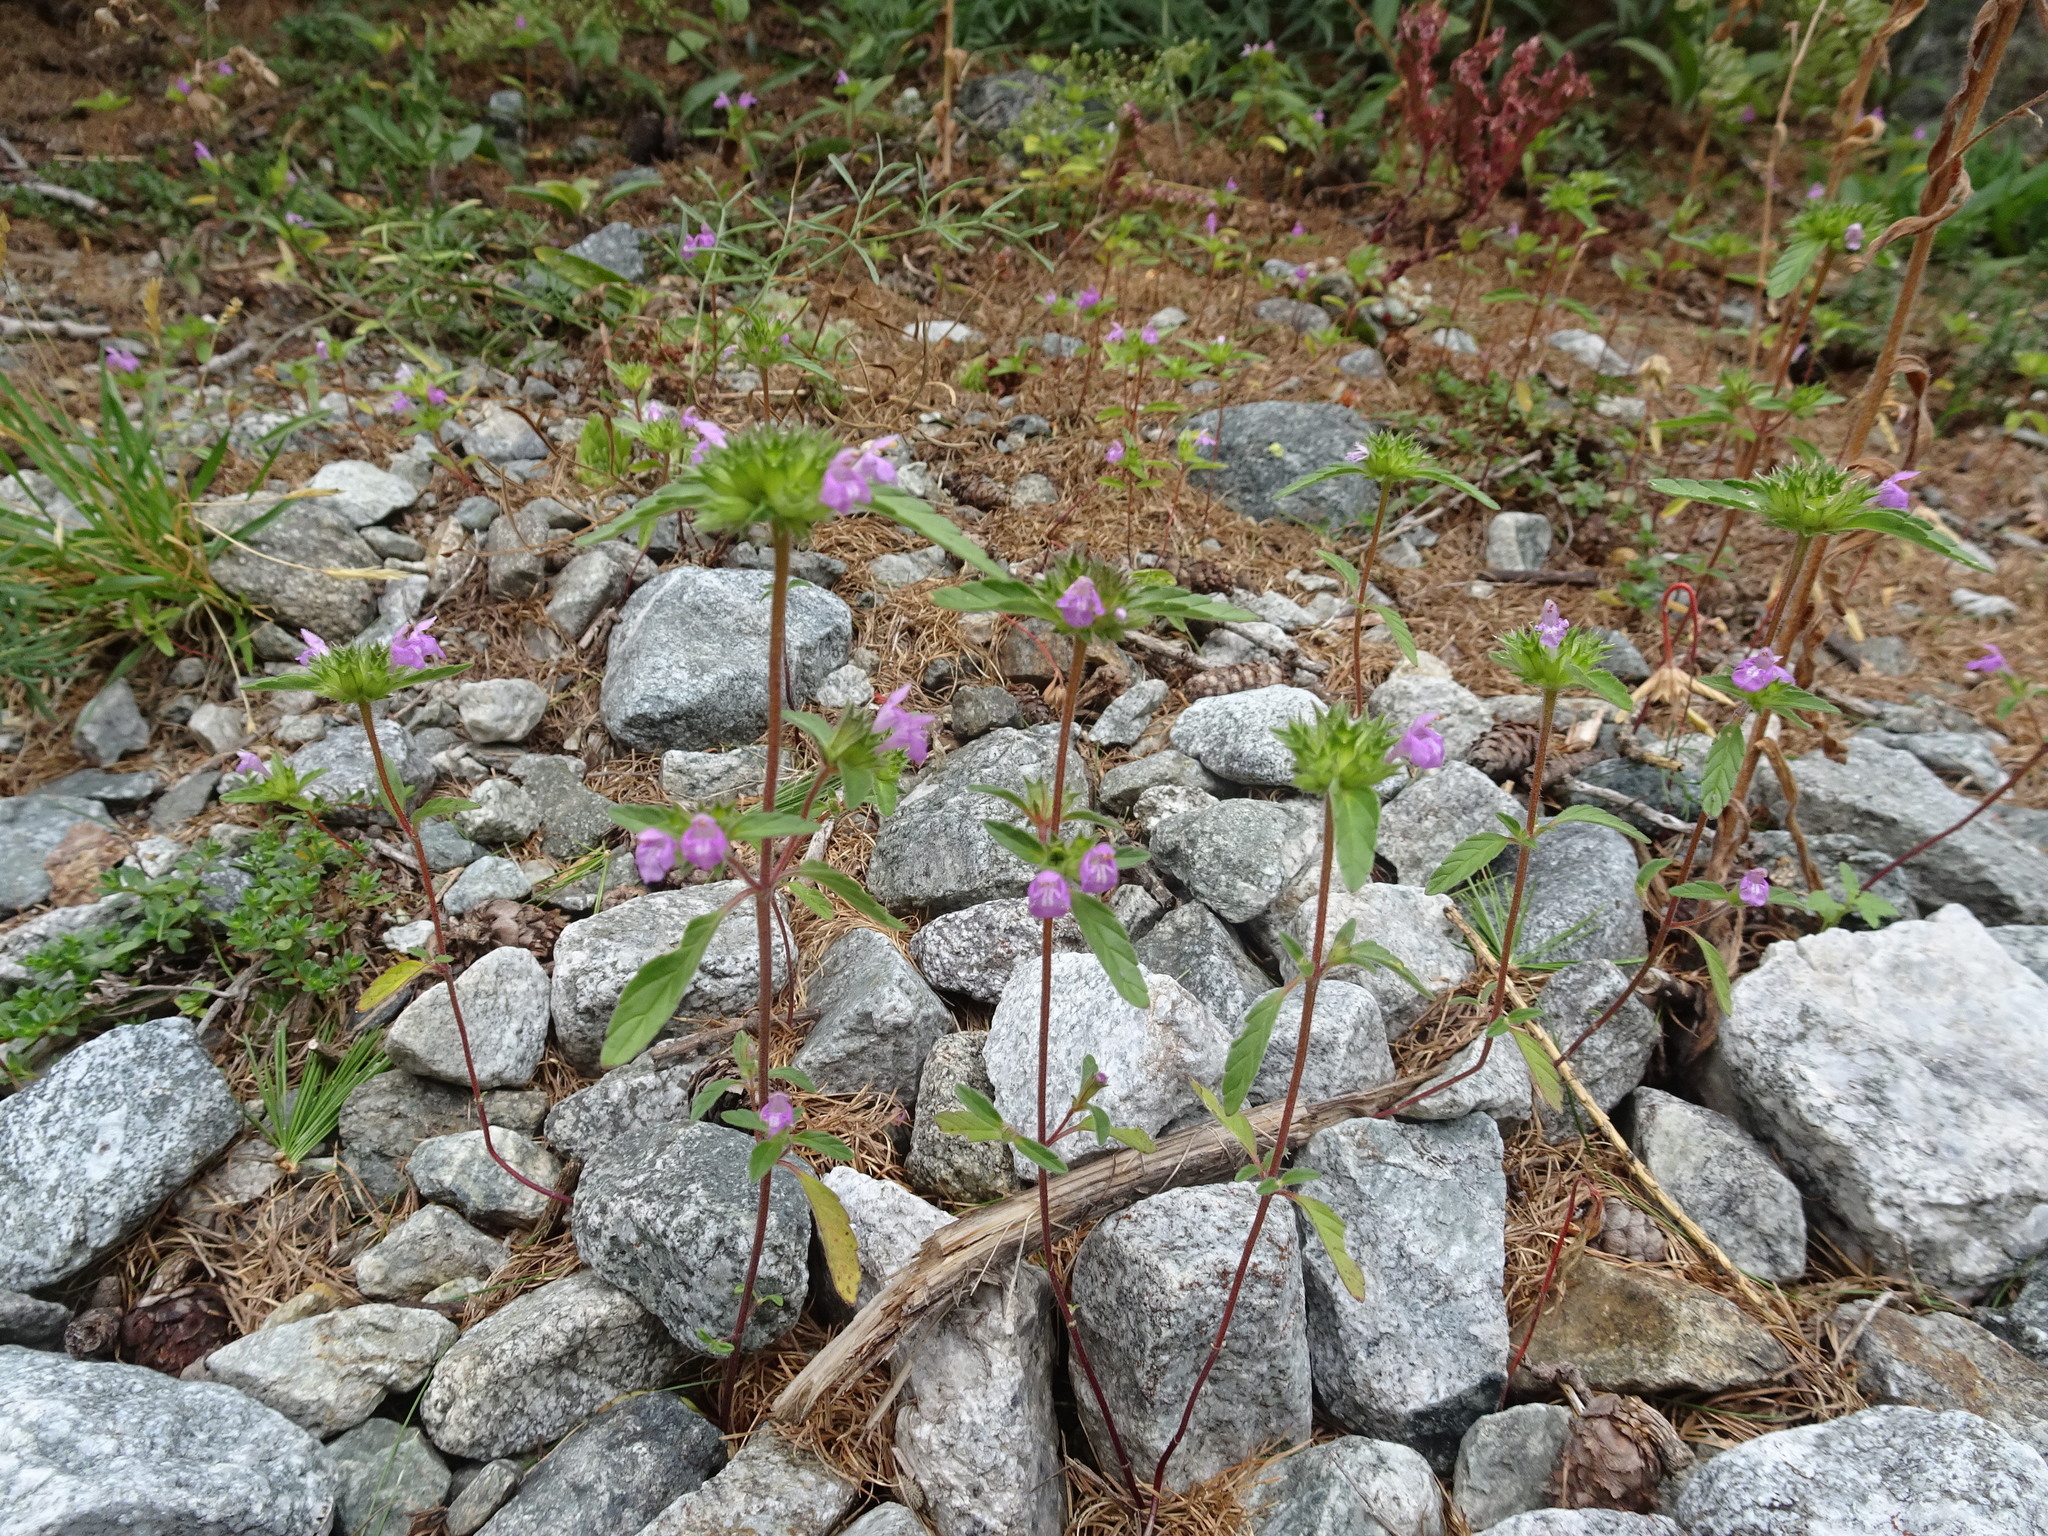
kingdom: Plantae
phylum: Tracheophyta
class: Magnoliopsida
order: Lamiales
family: Lamiaceae
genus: Galeopsis
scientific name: Galeopsis ladanum
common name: Broad-leaved hemp-nettle
